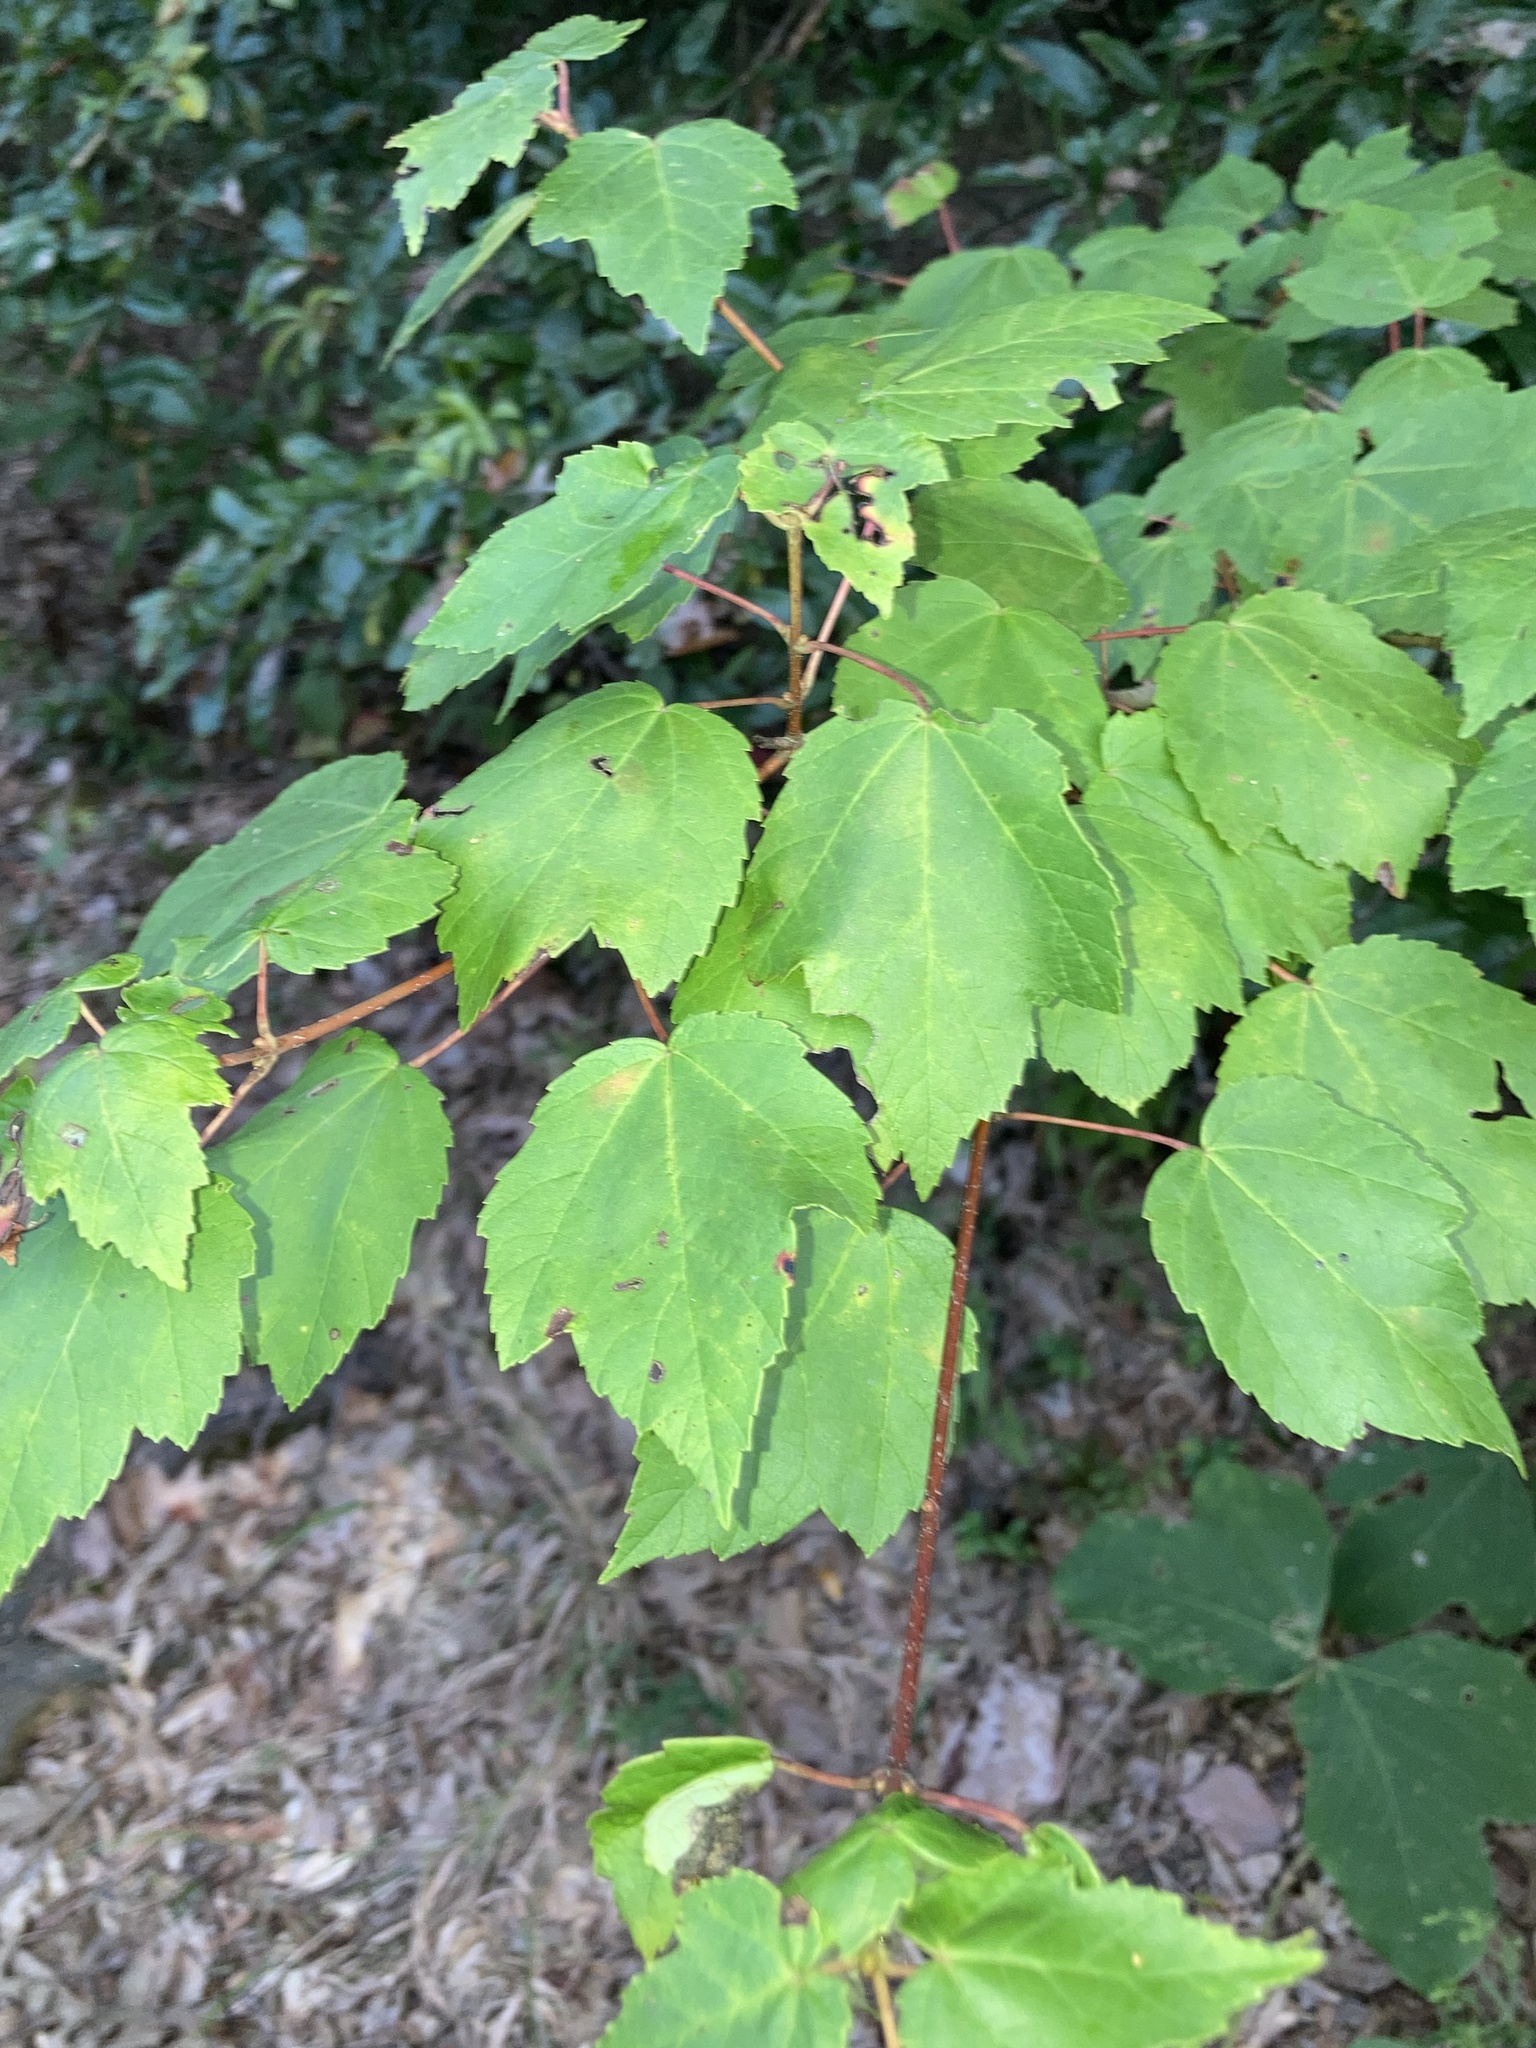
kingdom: Plantae
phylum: Tracheophyta
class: Magnoliopsida
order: Sapindales
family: Sapindaceae
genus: Acer
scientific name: Acer rubrum
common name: Red maple
